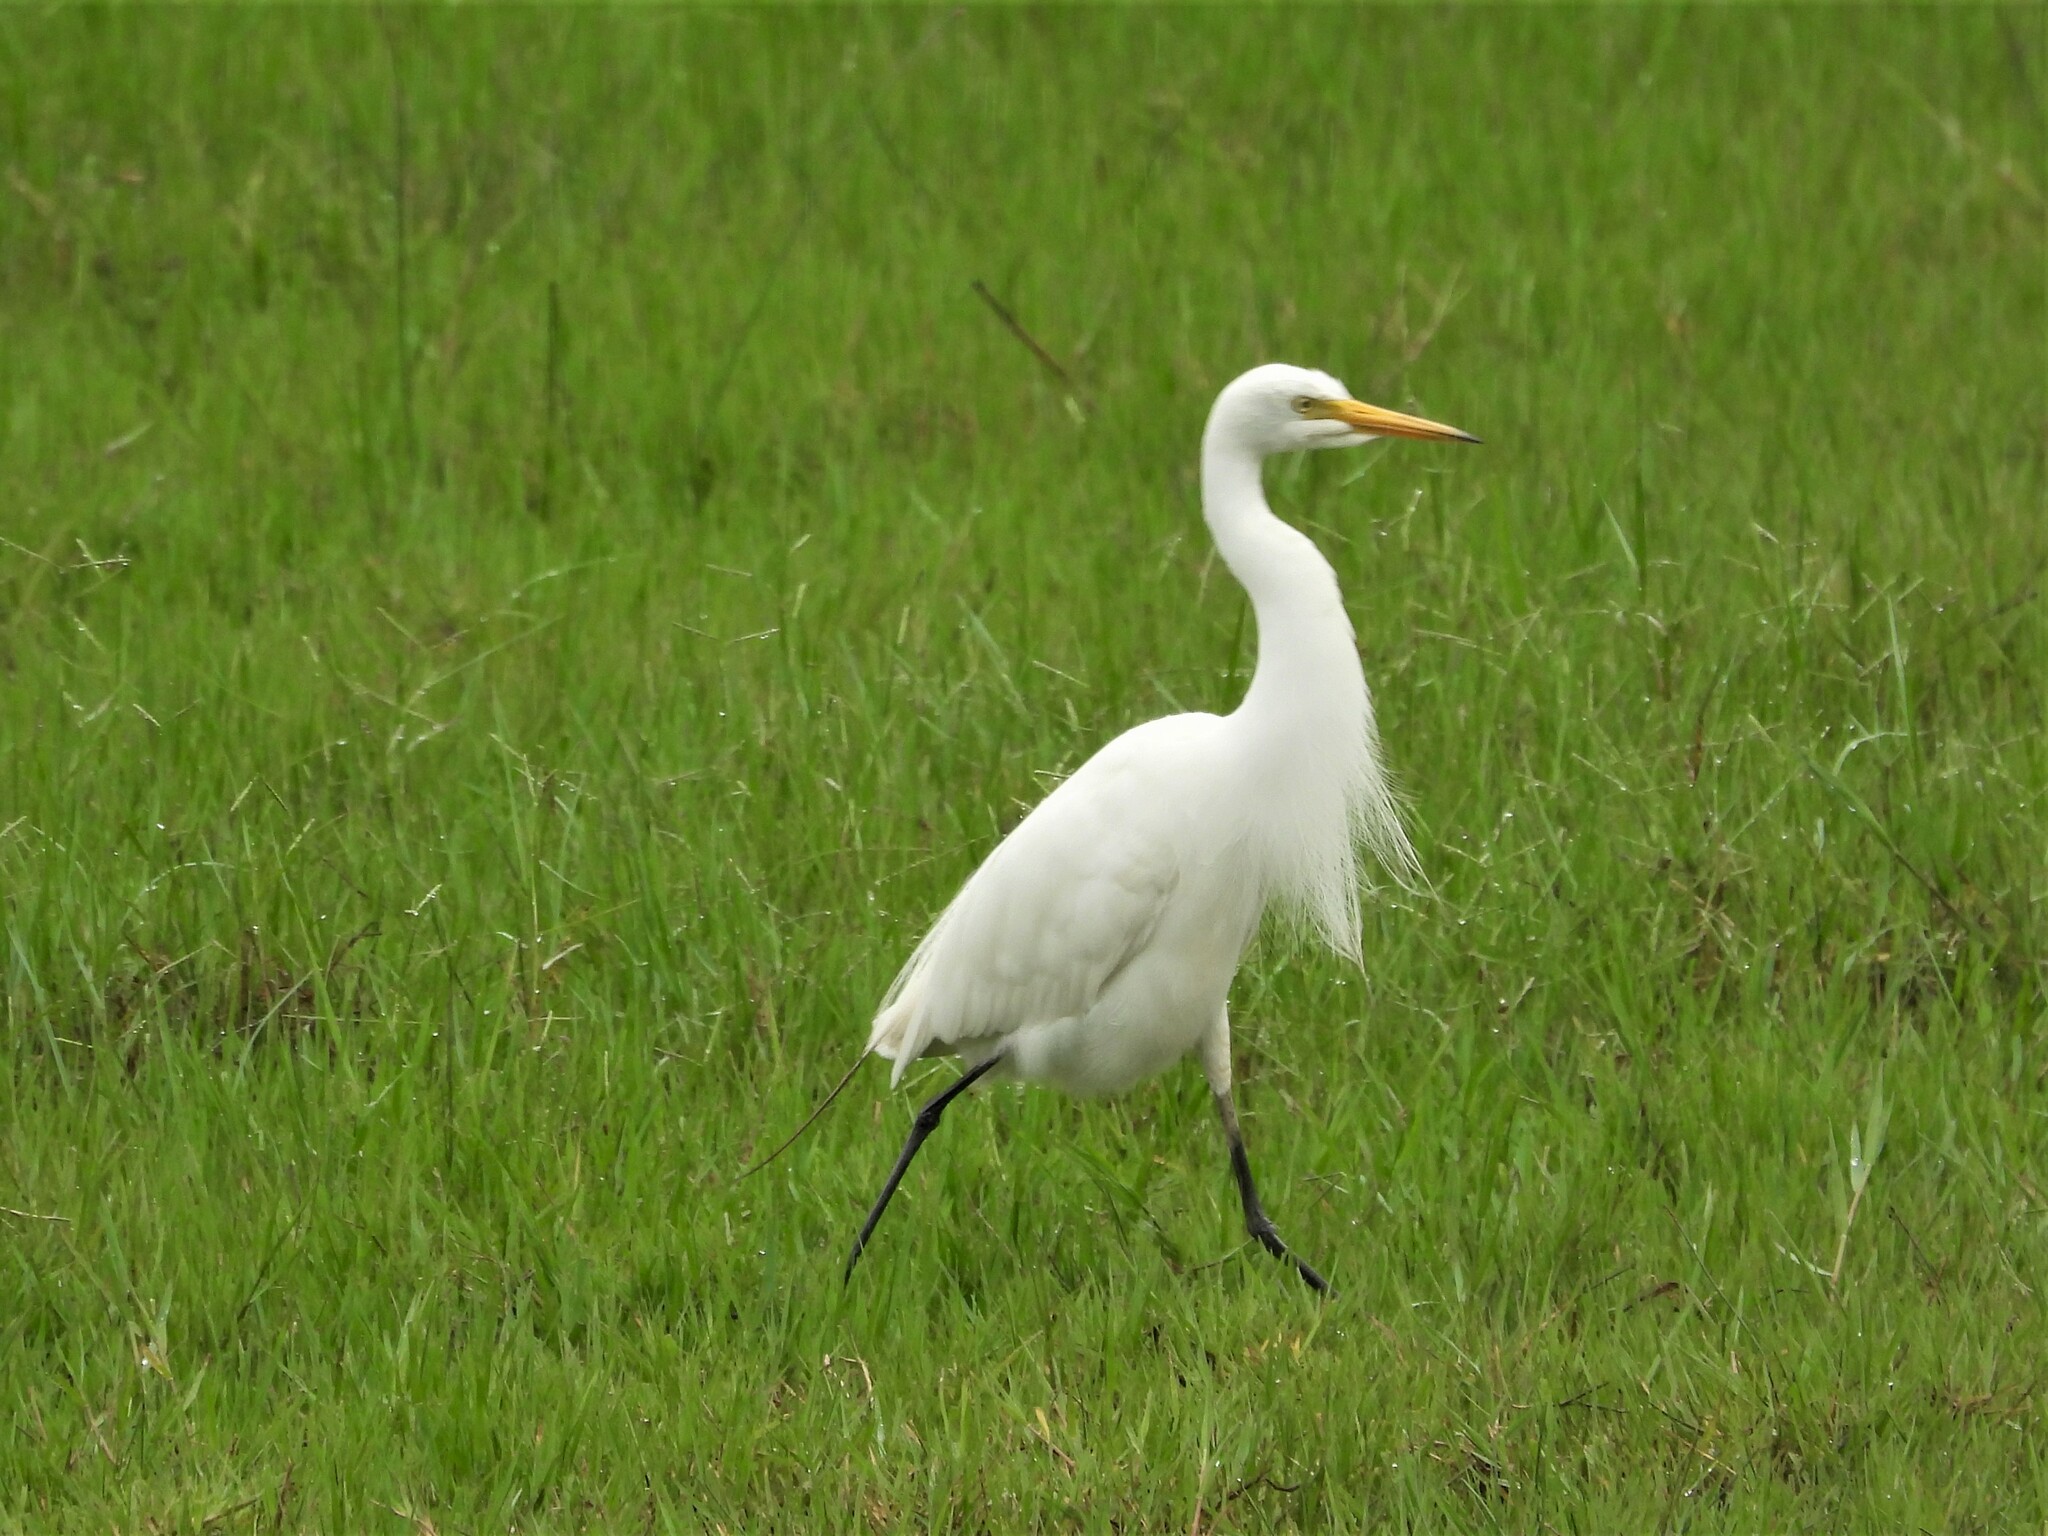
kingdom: Animalia
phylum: Chordata
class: Aves
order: Pelecaniformes
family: Ardeidae
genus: Egretta
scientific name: Egretta intermedia
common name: Intermediate egret
